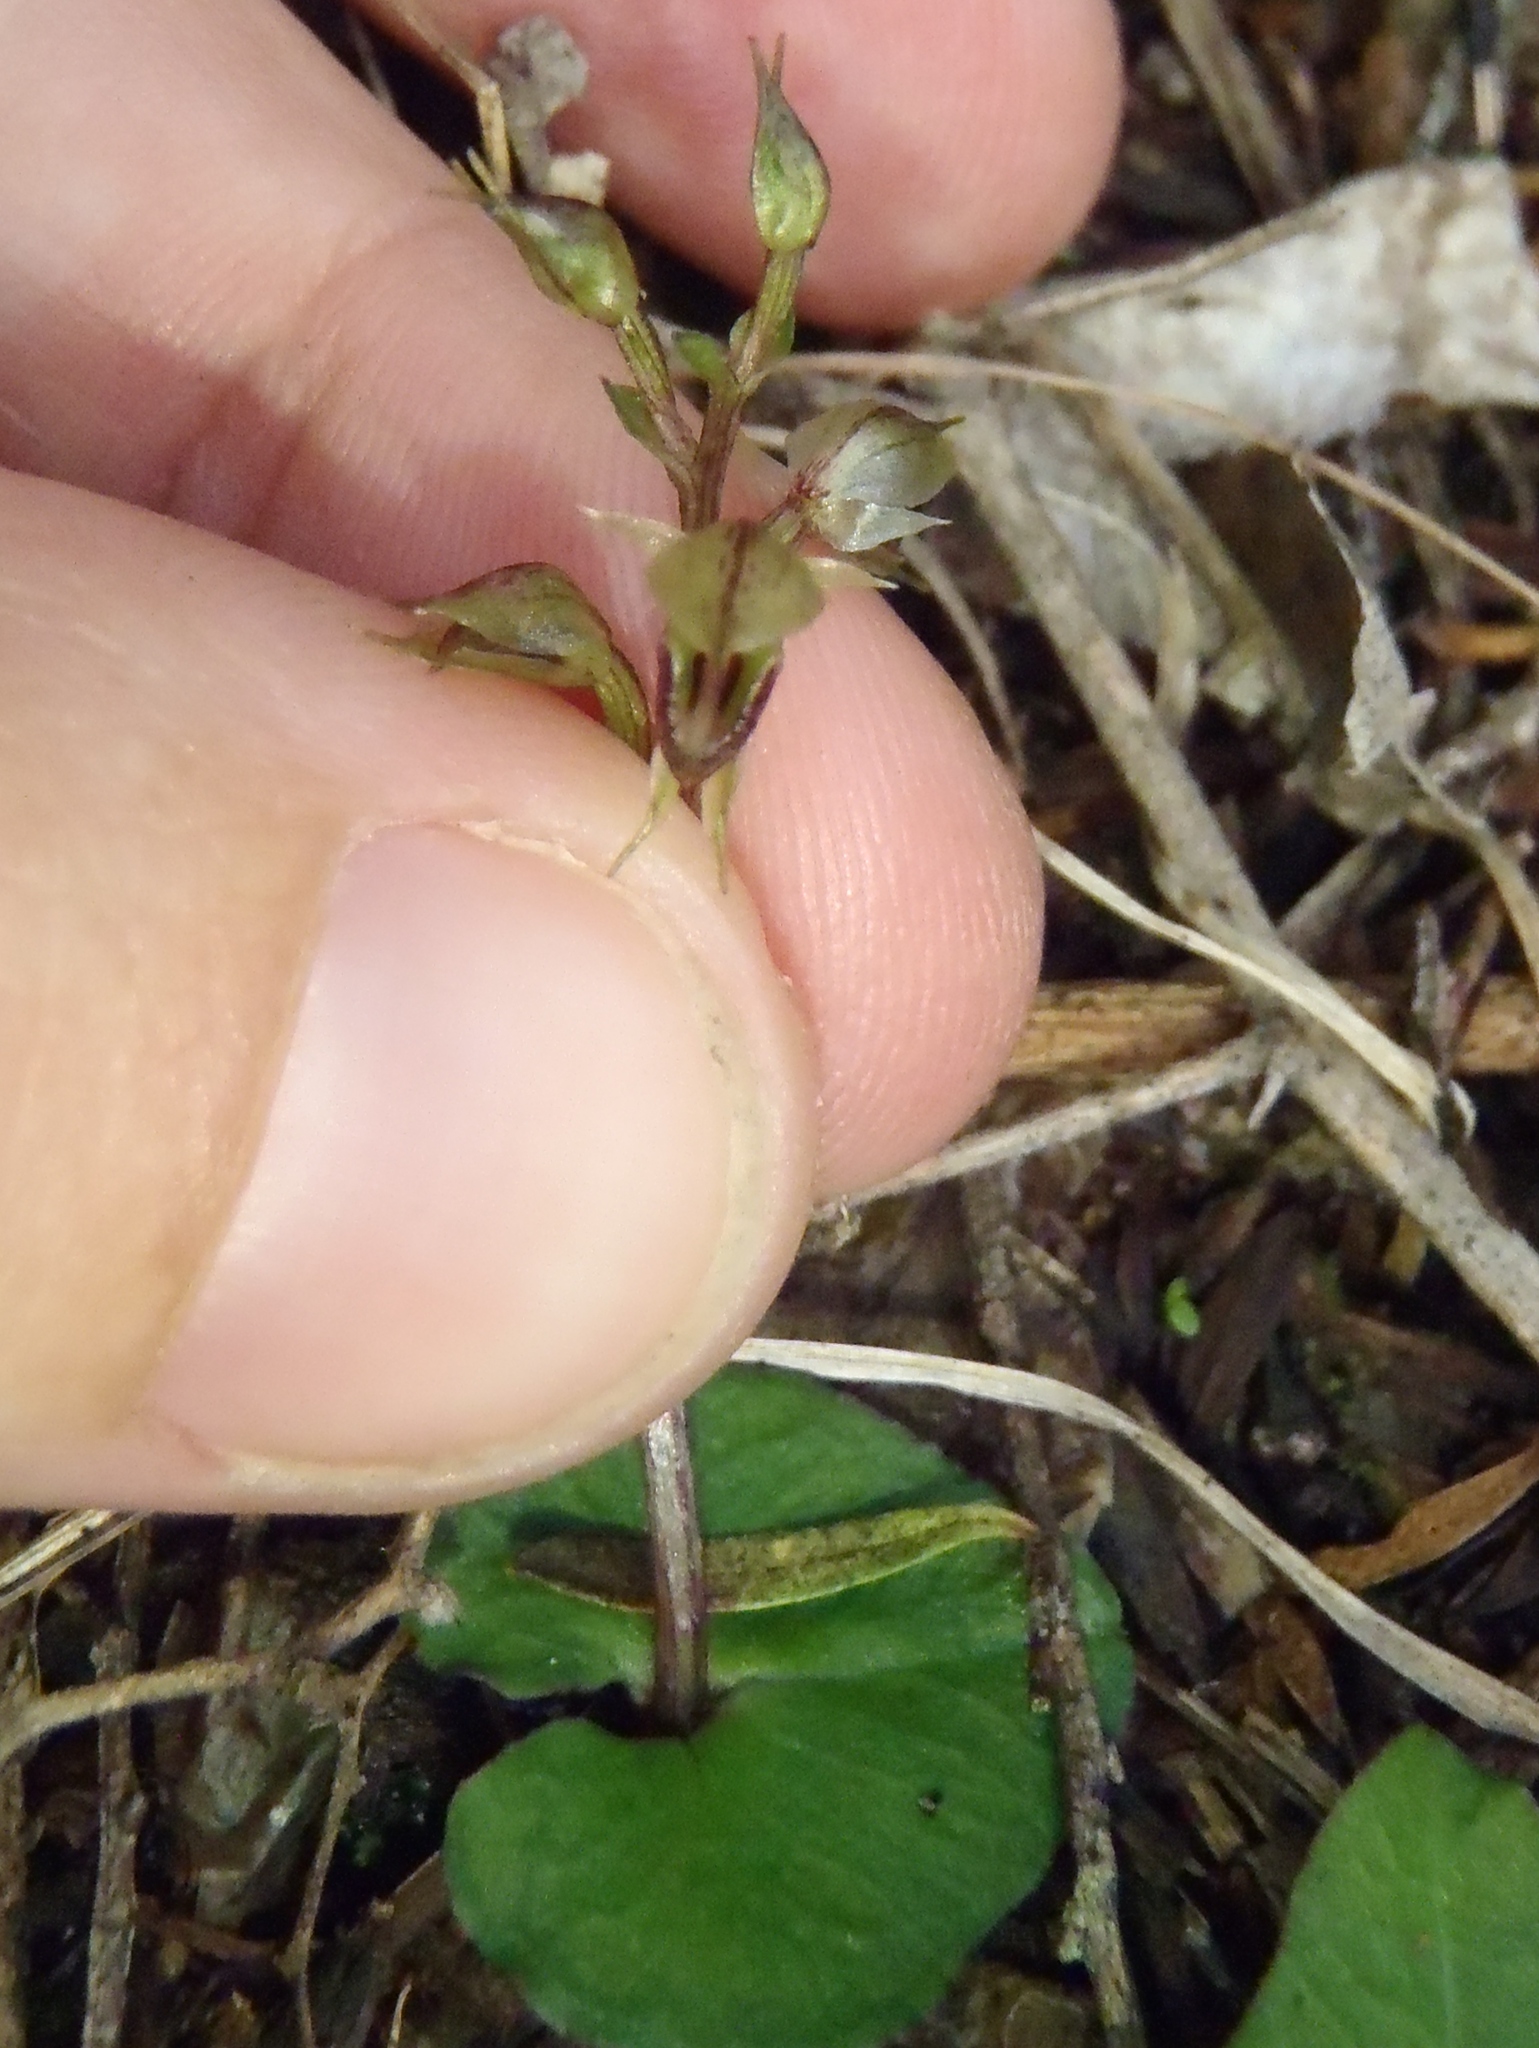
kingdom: Plantae
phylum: Tracheophyta
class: Liliopsida
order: Asparagales
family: Orchidaceae
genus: Acianthus
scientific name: Acianthus sinclairii
